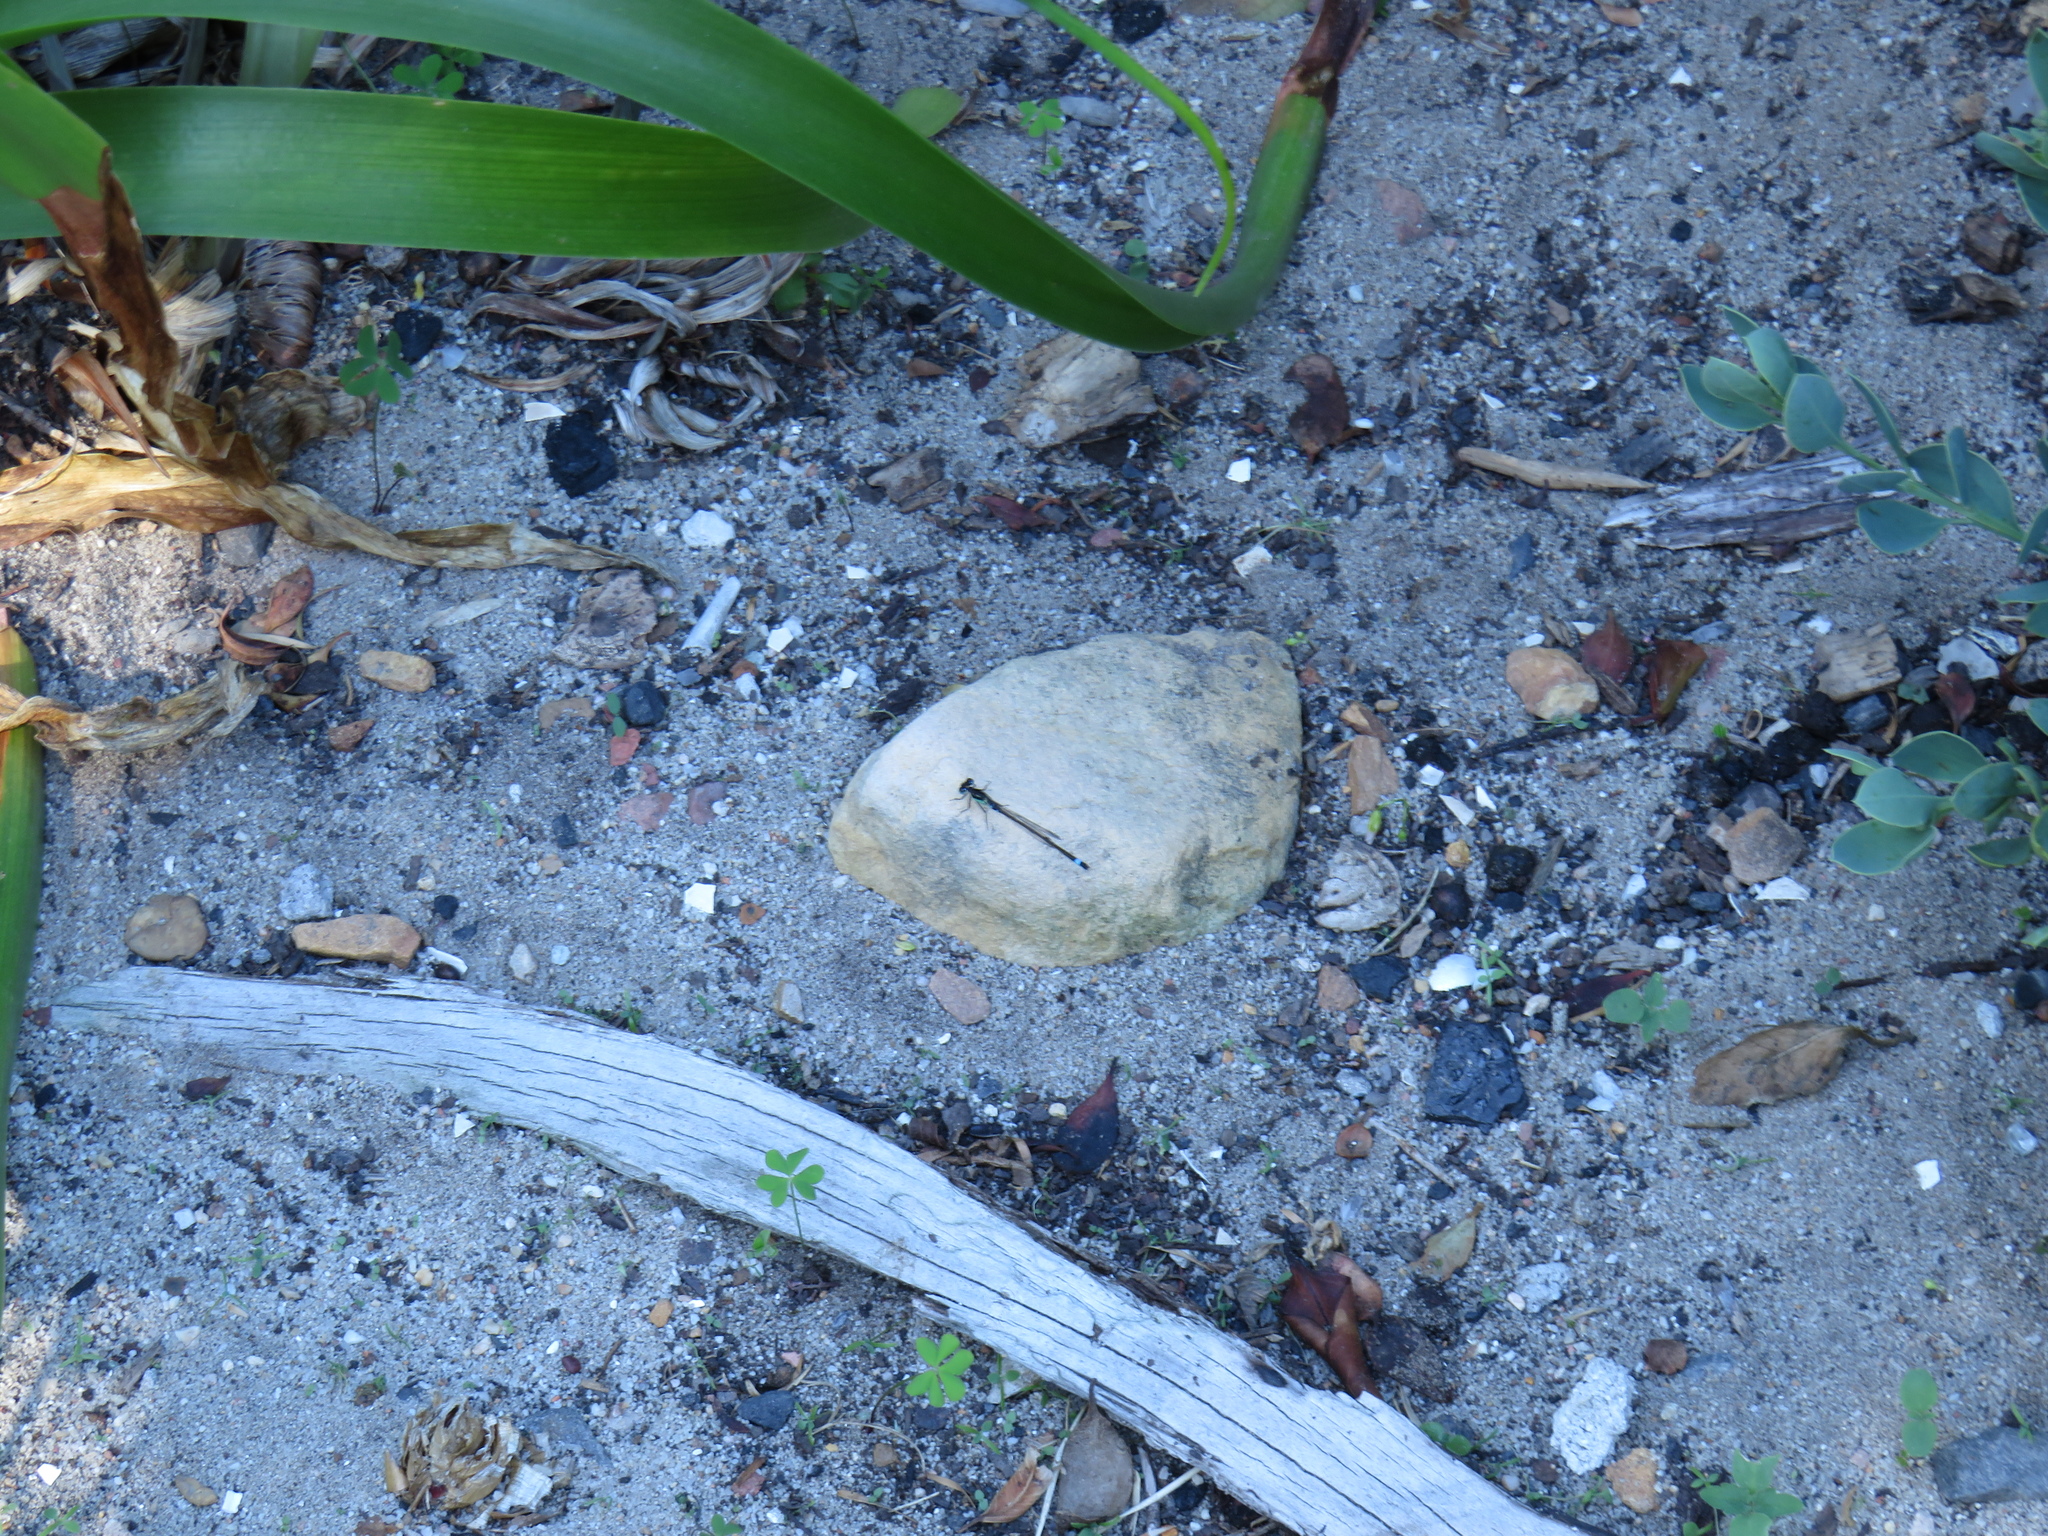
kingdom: Animalia
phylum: Arthropoda
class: Insecta
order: Odonata
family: Coenagrionidae
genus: Ischnura
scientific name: Ischnura senegalensis
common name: Tropical bluetail
